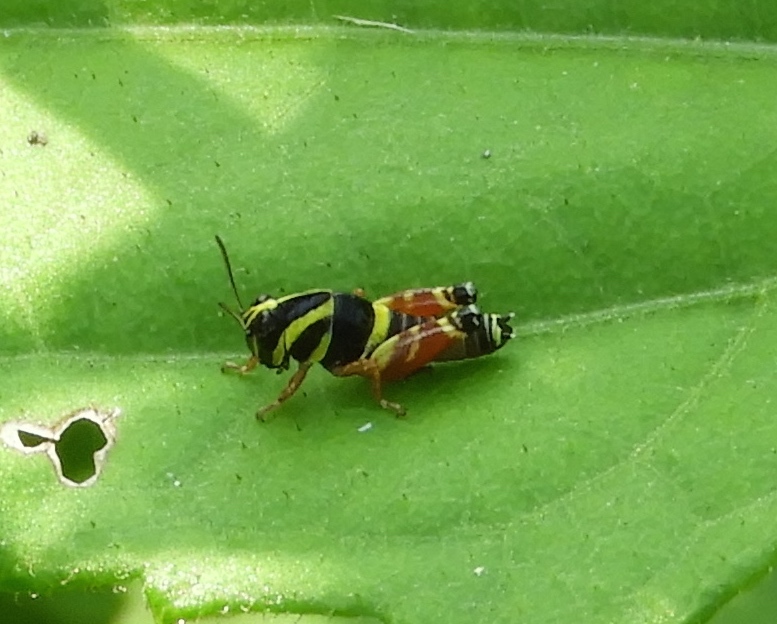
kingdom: Animalia
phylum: Arthropoda
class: Insecta
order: Orthoptera
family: Acrididae
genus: Aidemona
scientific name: Aidemona azteca
